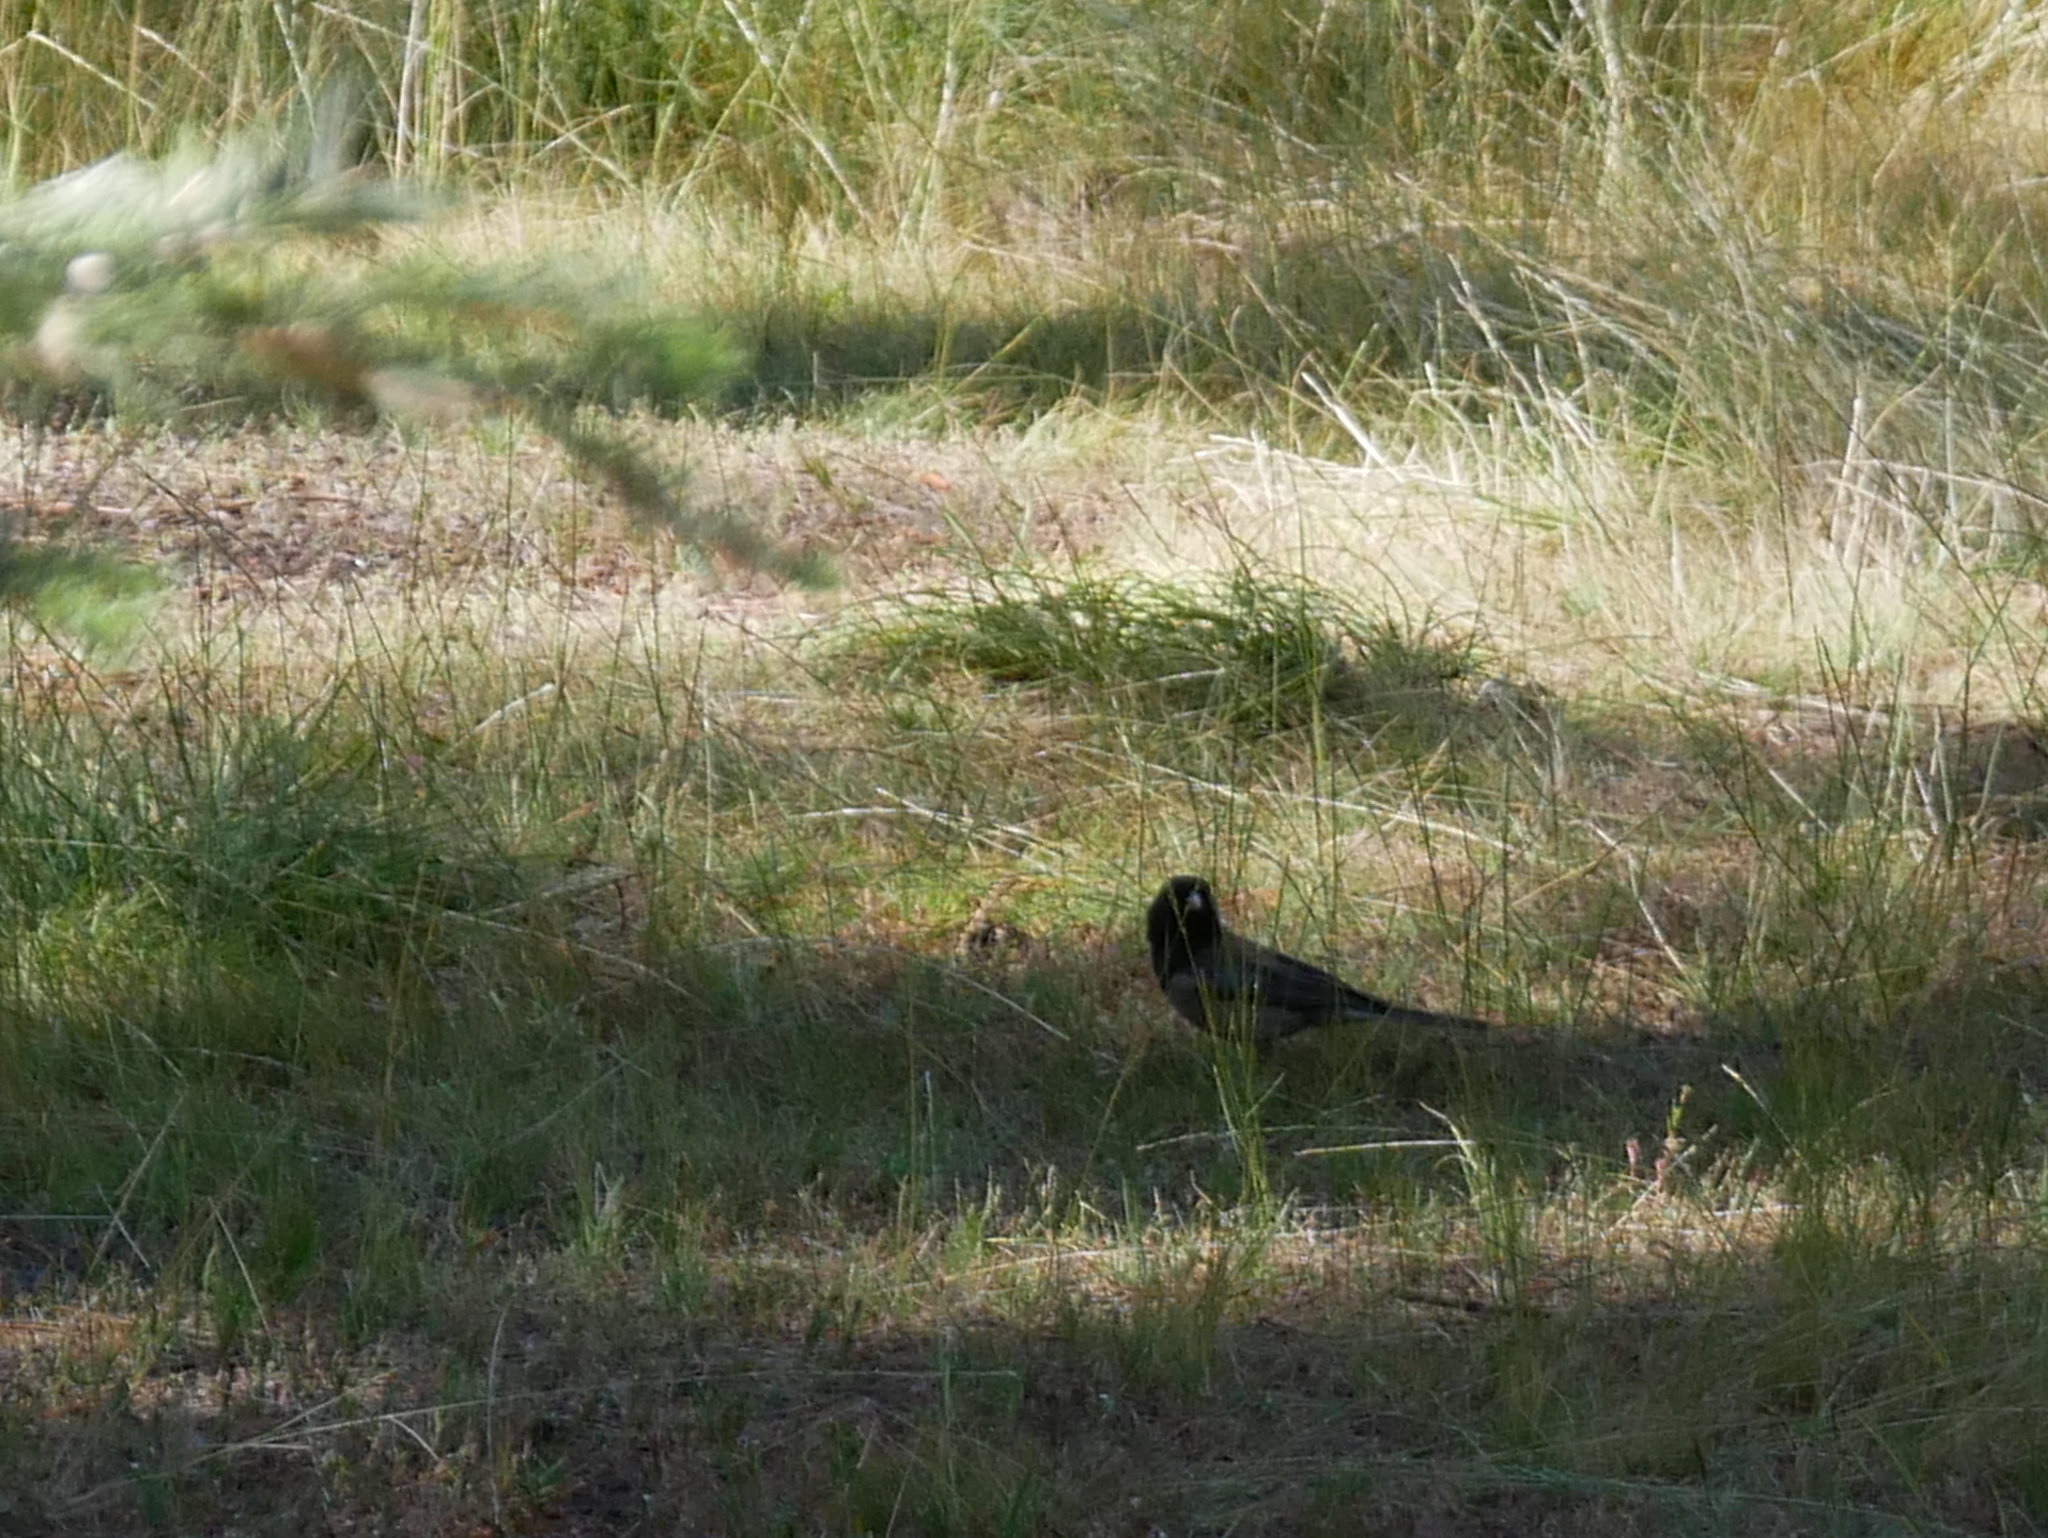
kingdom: Animalia
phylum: Chordata
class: Aves
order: Passeriformes
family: Passerellidae
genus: Junco
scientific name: Junco hyemalis
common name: Dark-eyed junco
